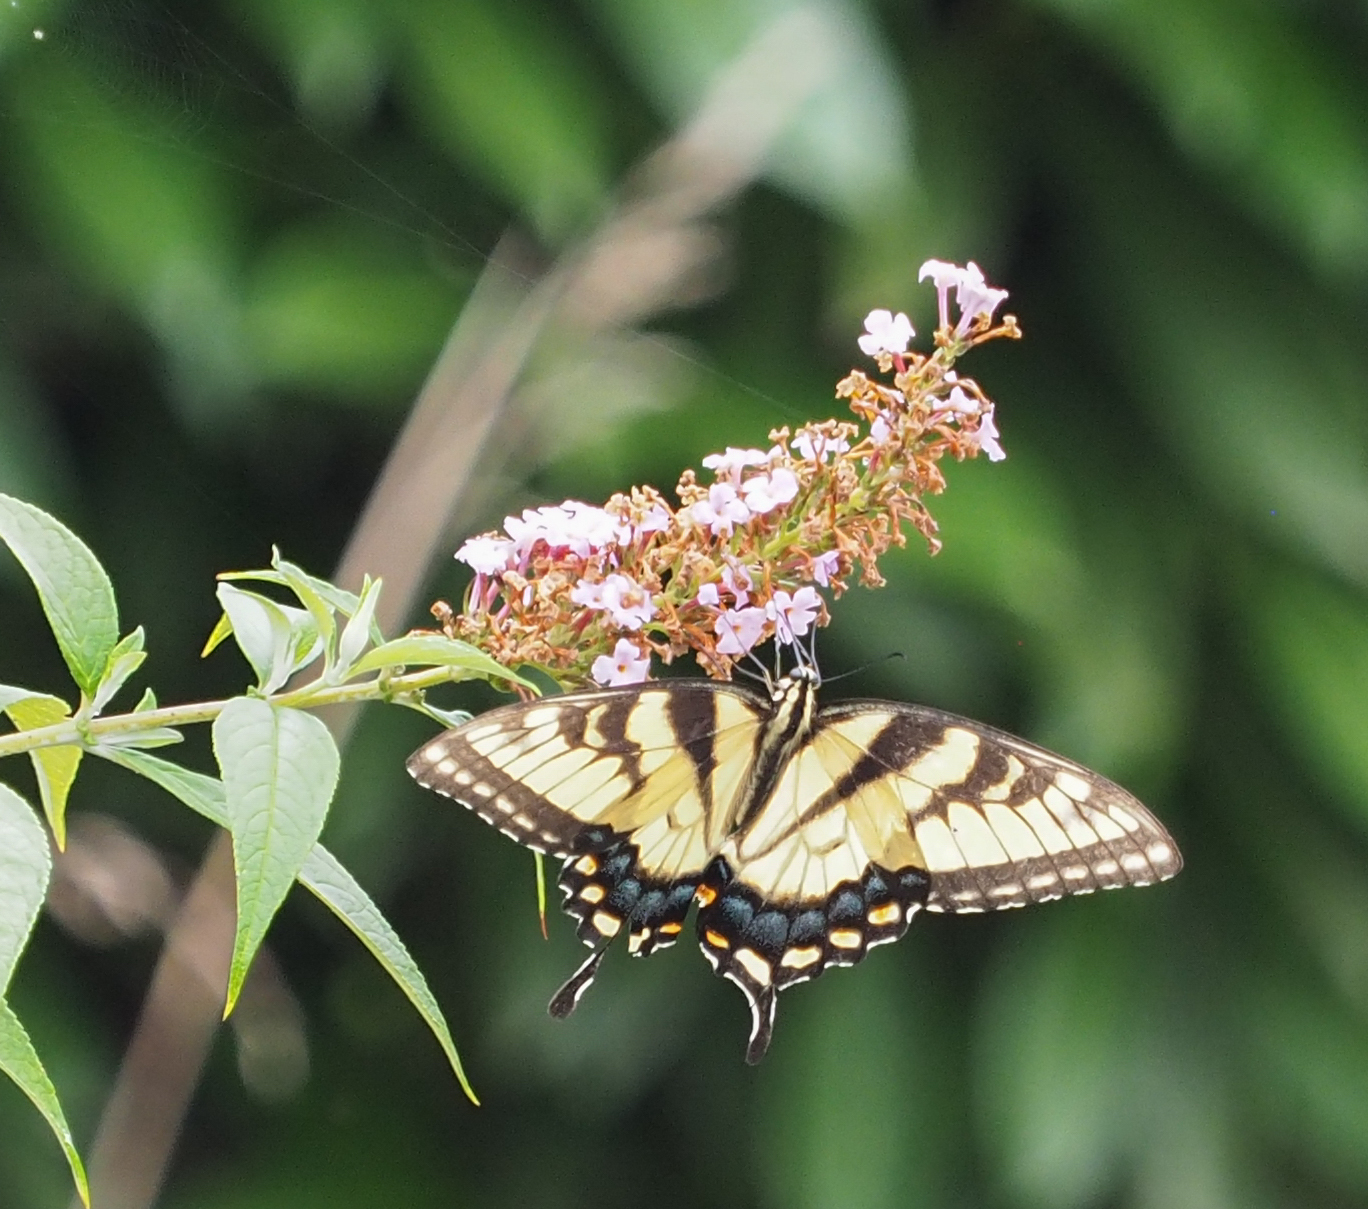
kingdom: Animalia
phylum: Arthropoda
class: Insecta
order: Lepidoptera
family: Papilionidae
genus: Papilio
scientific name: Papilio glaucus
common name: Tiger swallowtail
